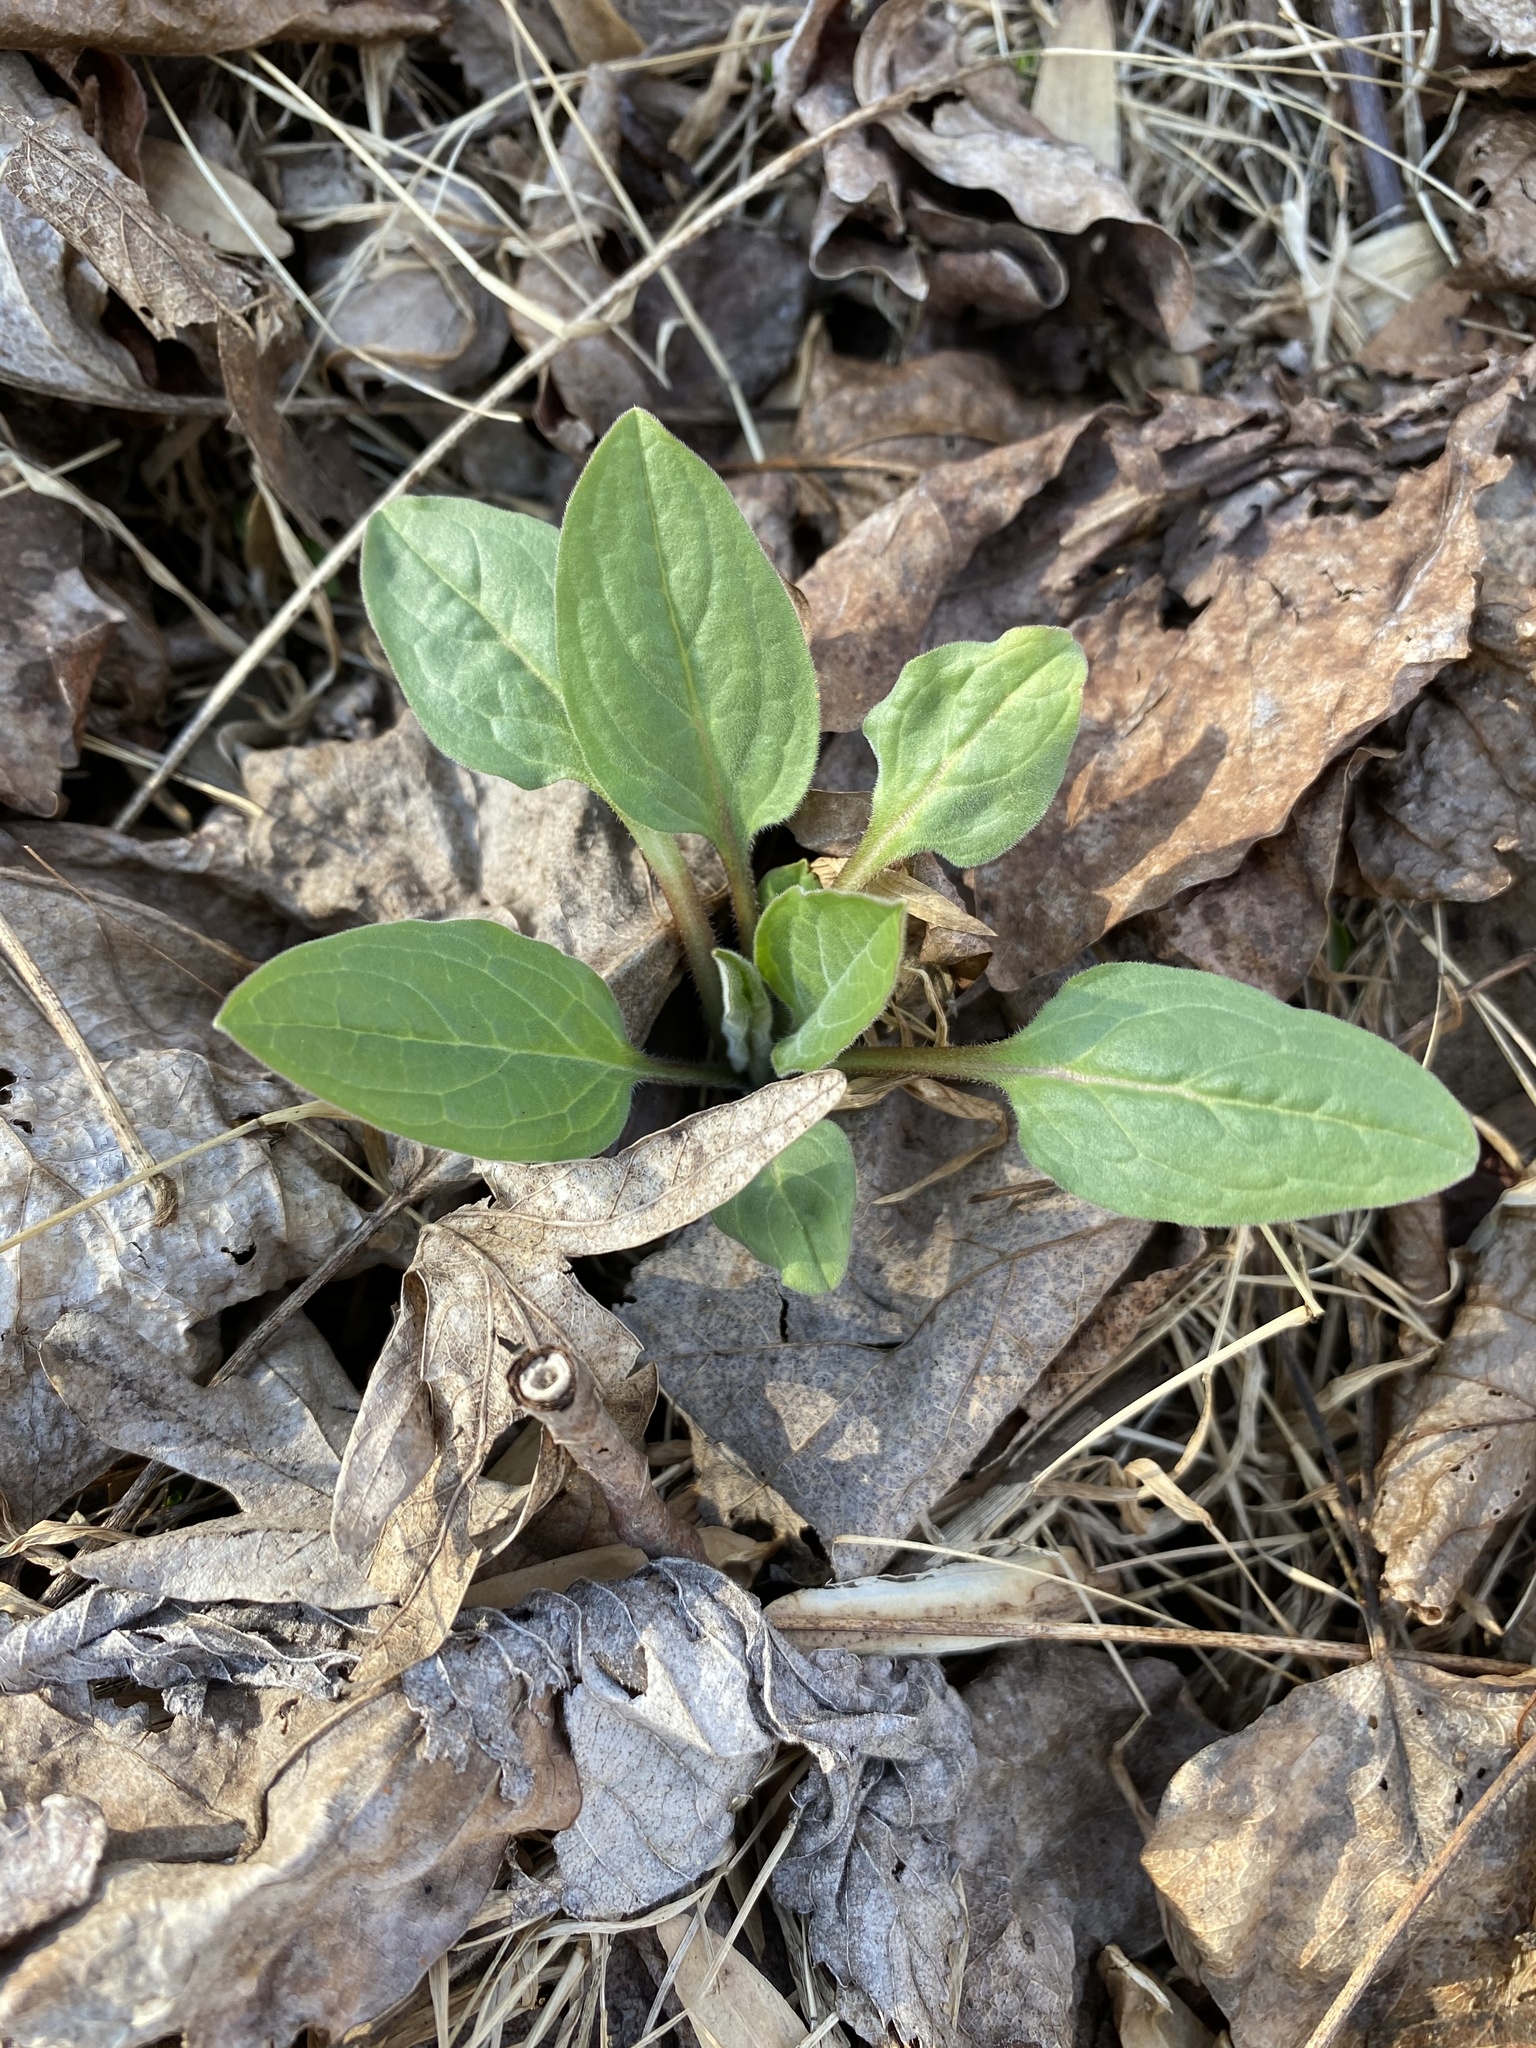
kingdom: Plantae
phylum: Tracheophyta
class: Magnoliopsida
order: Boraginales
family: Boraginaceae
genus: Hackelia
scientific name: Hackelia virginiana
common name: Beggar's-lice
